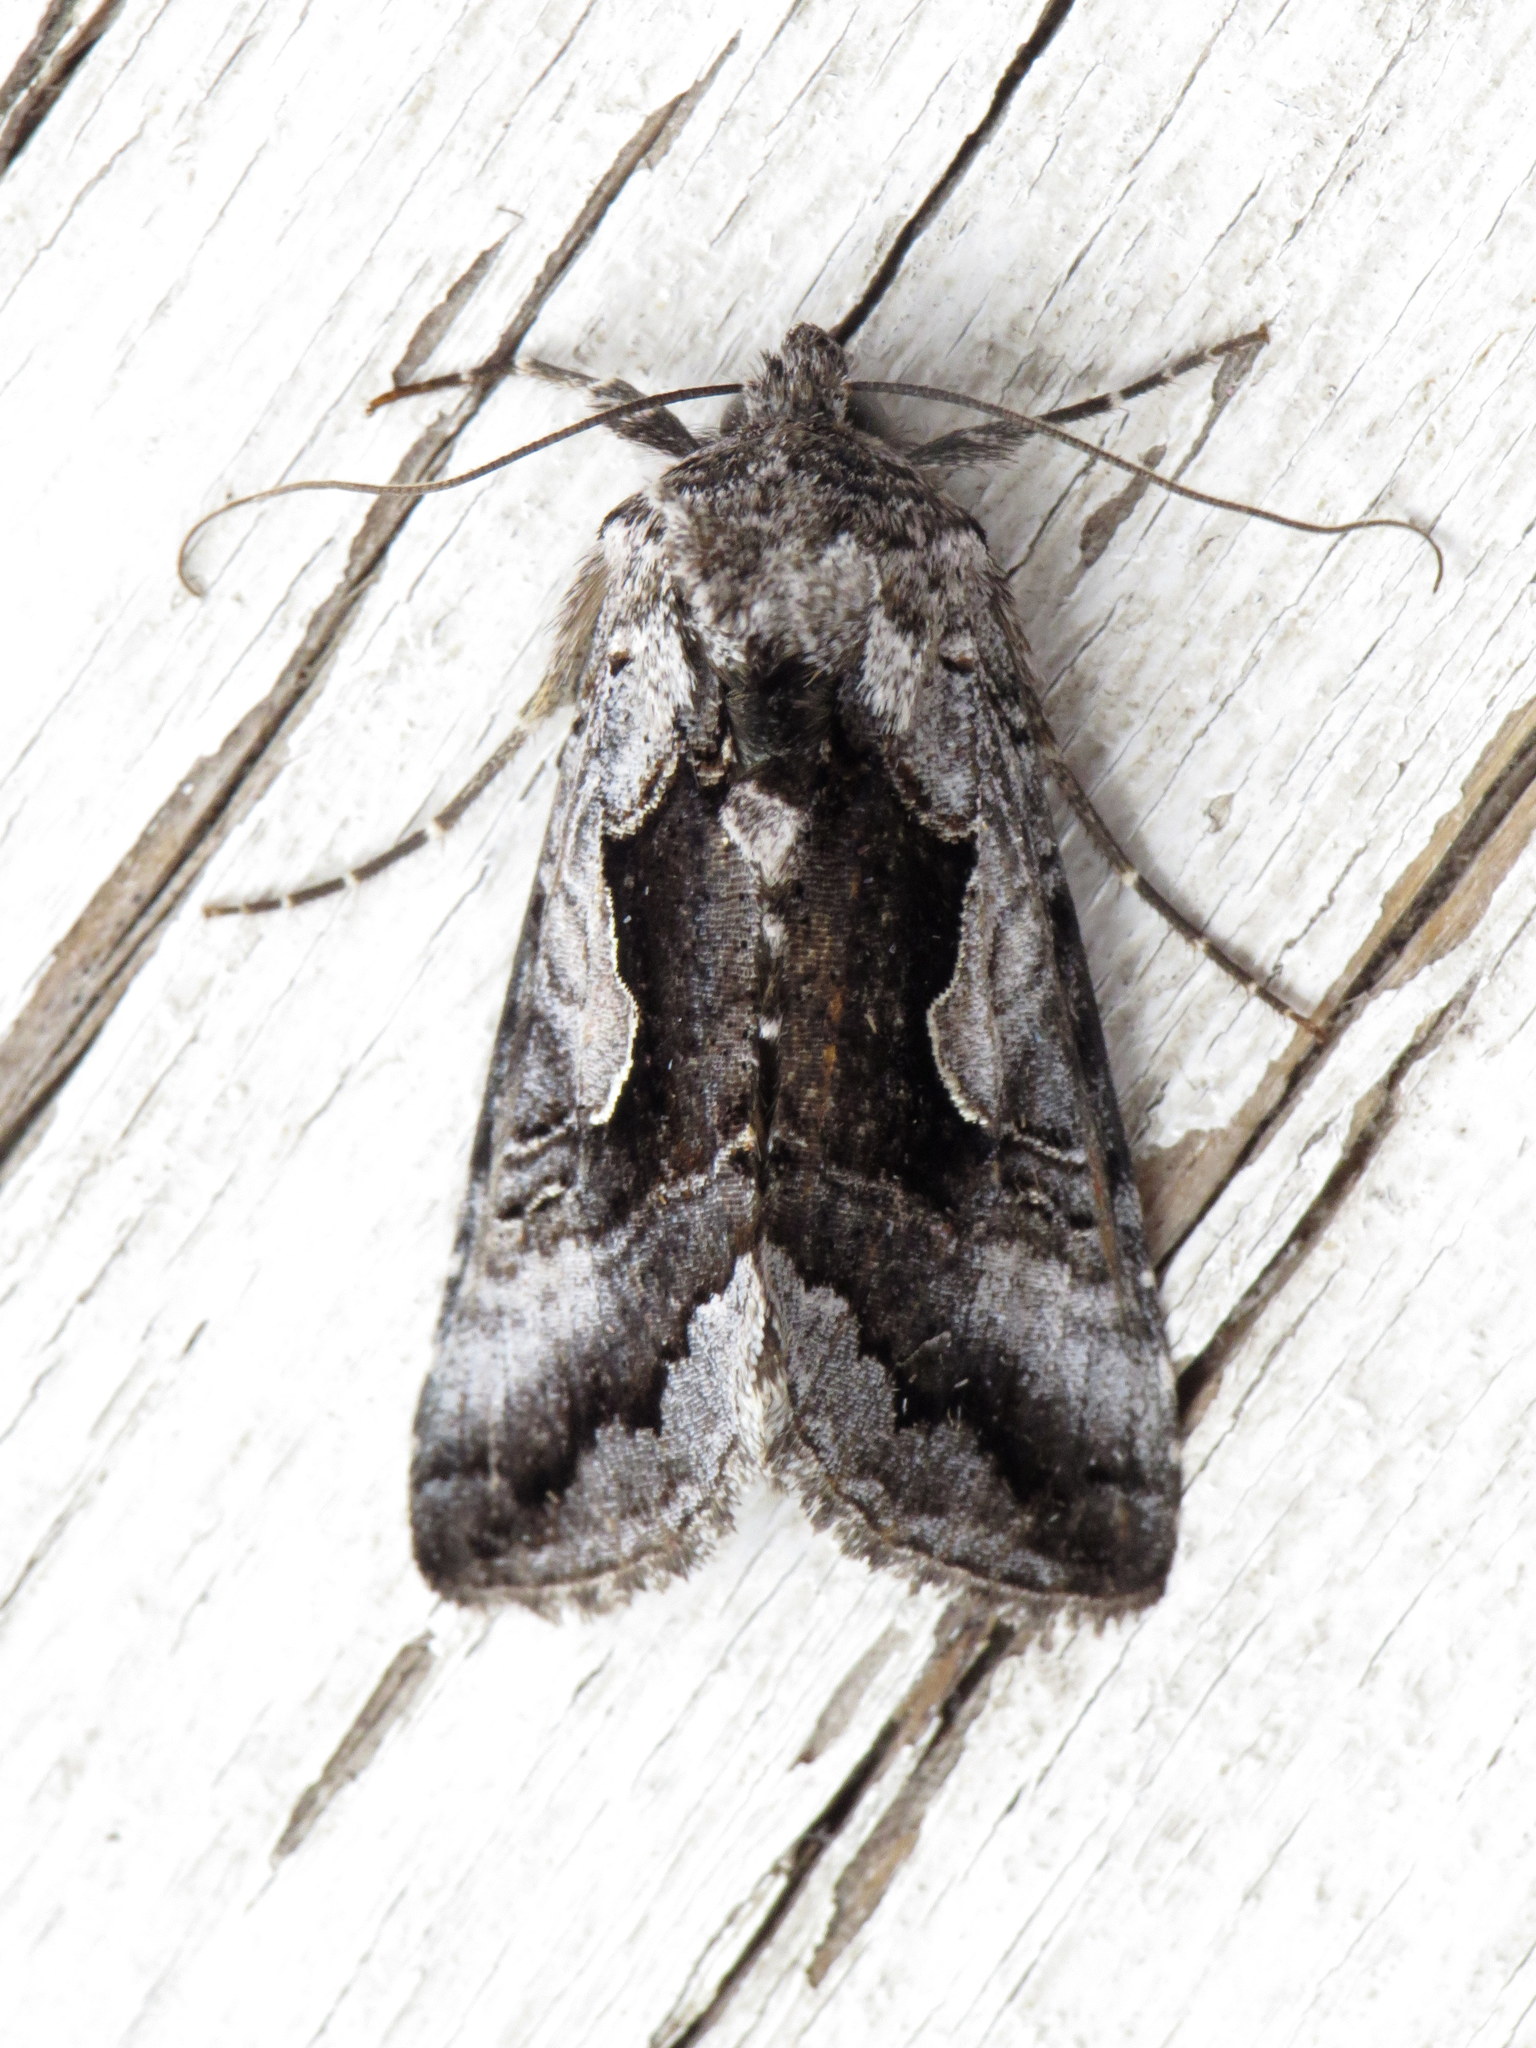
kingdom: Animalia
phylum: Arthropoda
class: Insecta
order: Lepidoptera
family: Noctuidae
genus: Syngrapha
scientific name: Syngrapha surena
